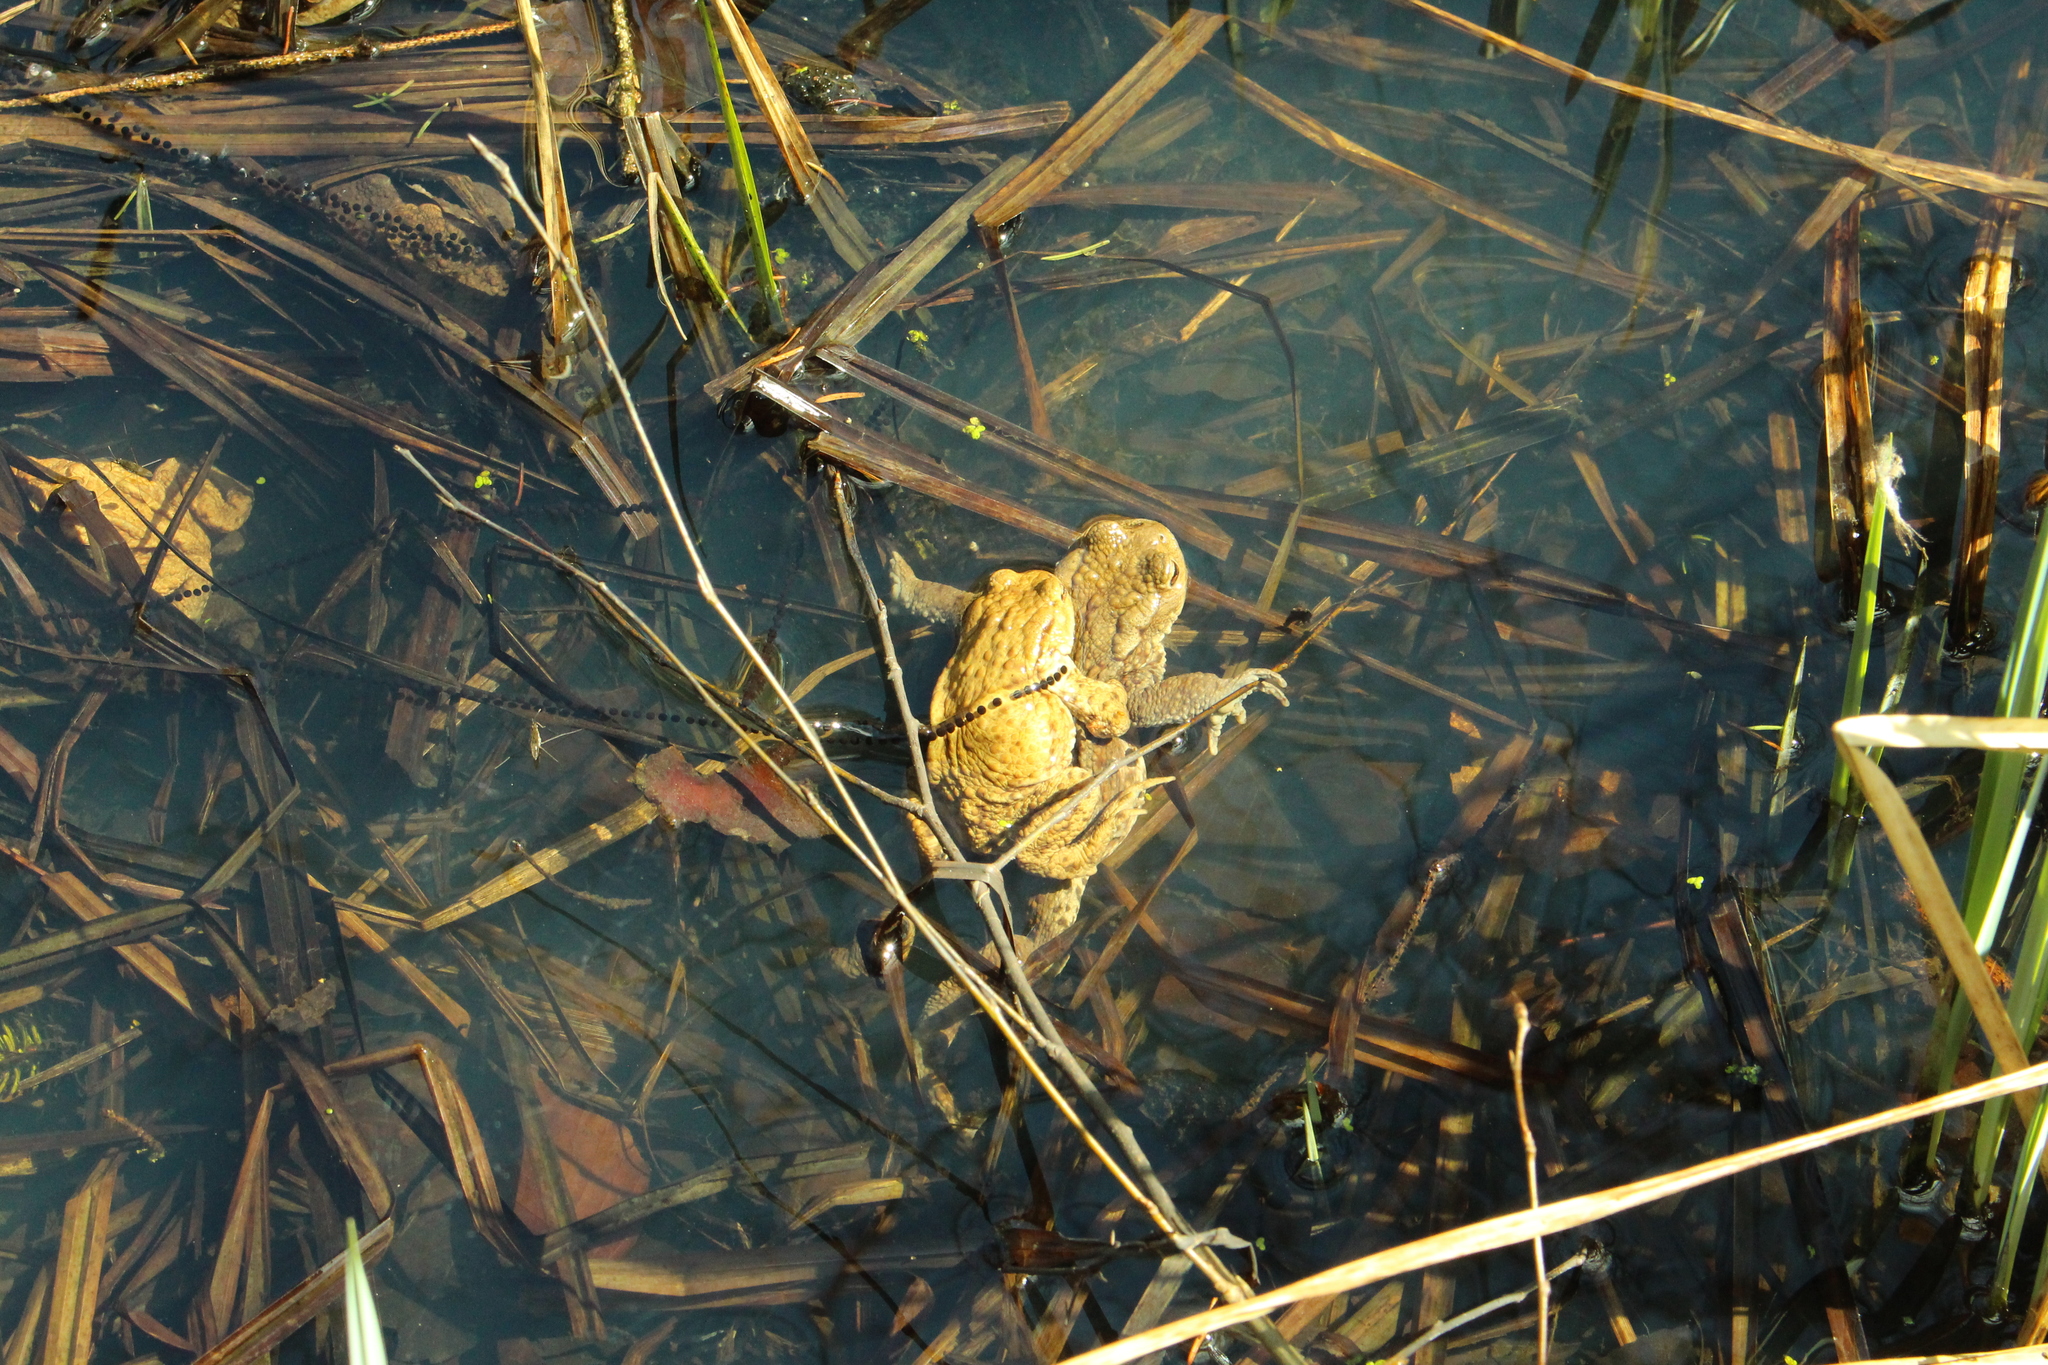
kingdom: Animalia
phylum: Chordata
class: Amphibia
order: Anura
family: Bufonidae
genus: Bufo
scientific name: Bufo bufo
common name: Common toad
